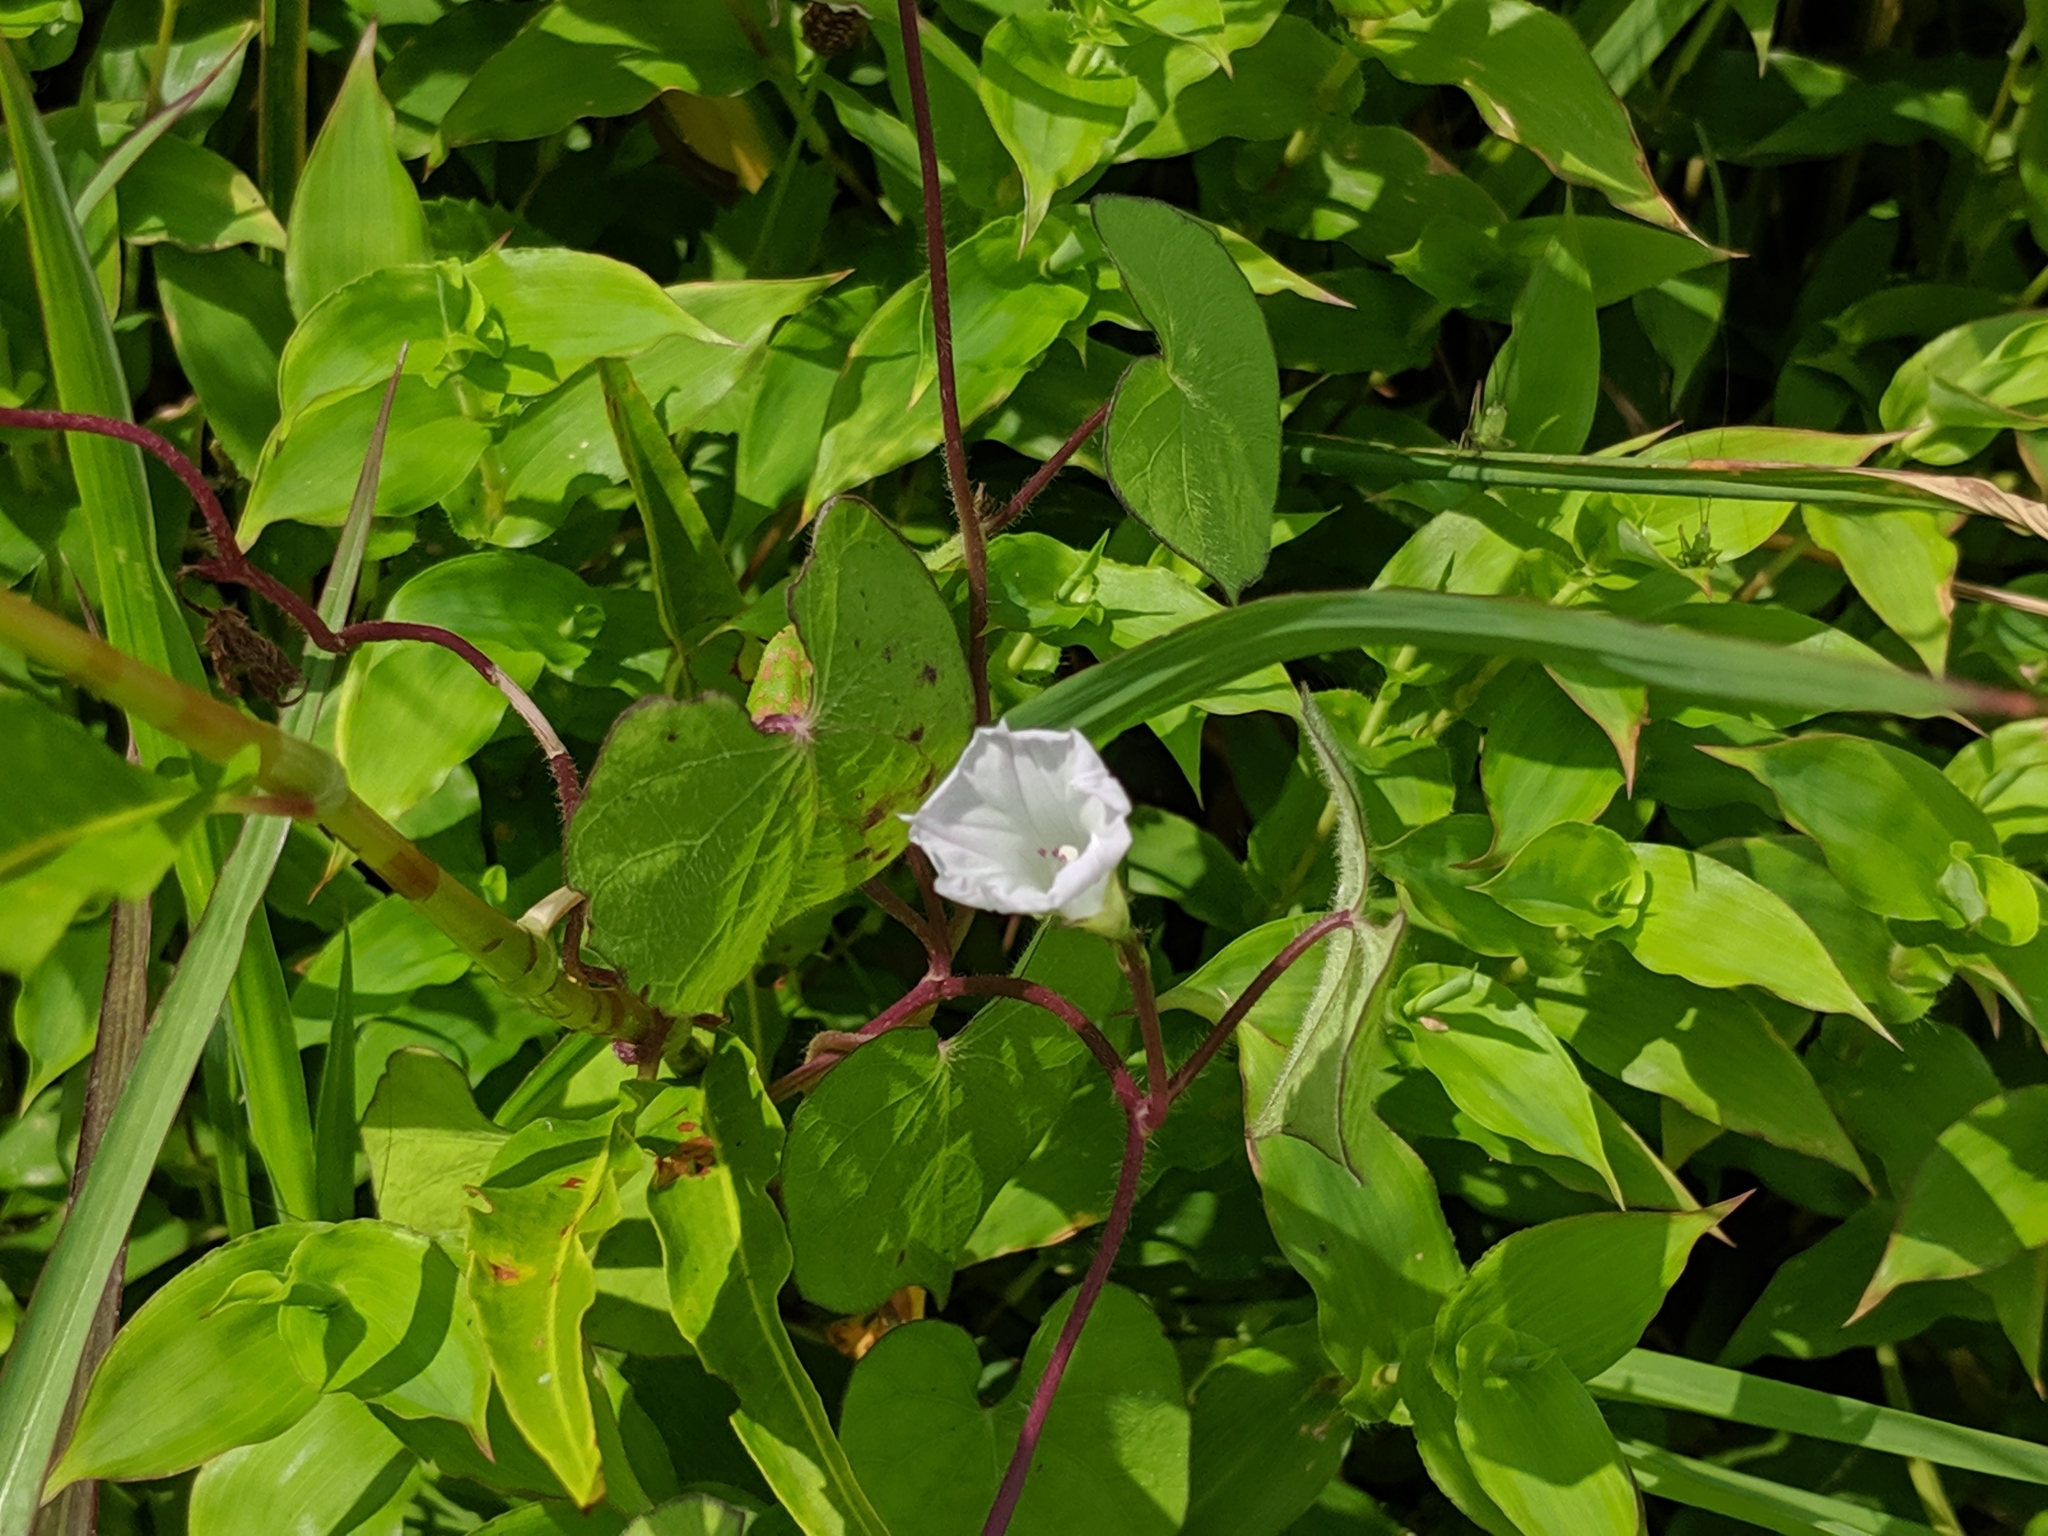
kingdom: Plantae
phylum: Tracheophyta
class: Magnoliopsida
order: Solanales
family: Convolvulaceae
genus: Ipomoea
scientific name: Ipomoea lacunosa
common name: White morning-glory
